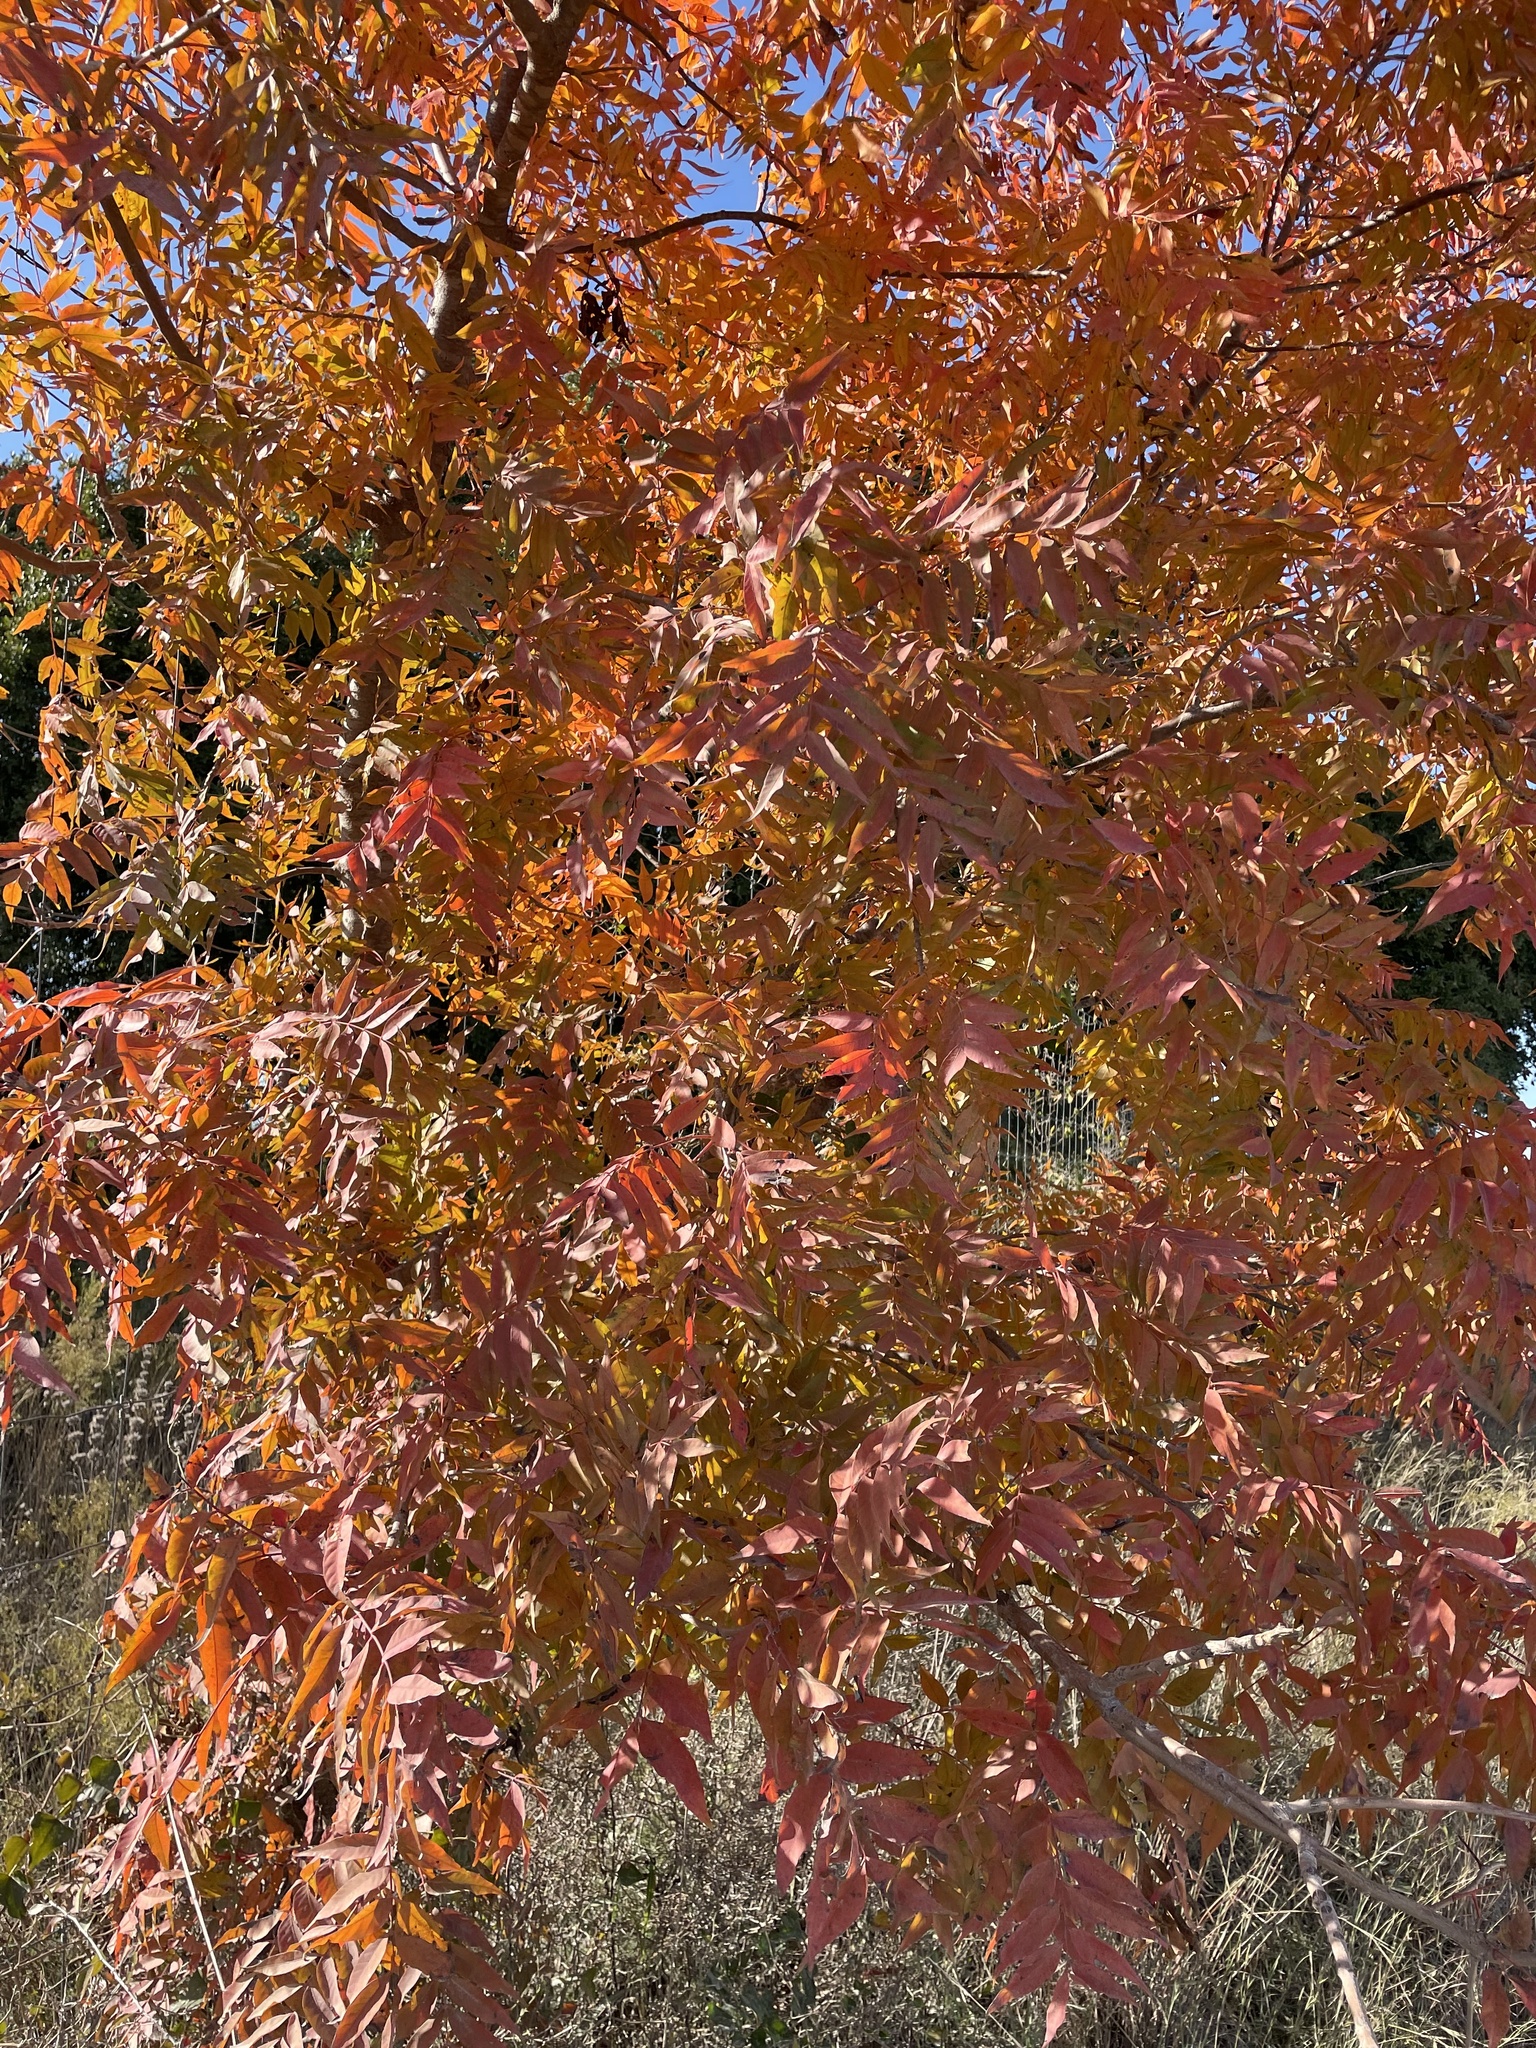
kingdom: Plantae
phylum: Tracheophyta
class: Magnoliopsida
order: Sapindales
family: Anacardiaceae
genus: Pistacia
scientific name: Pistacia chinensis
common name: Chinese pistache
